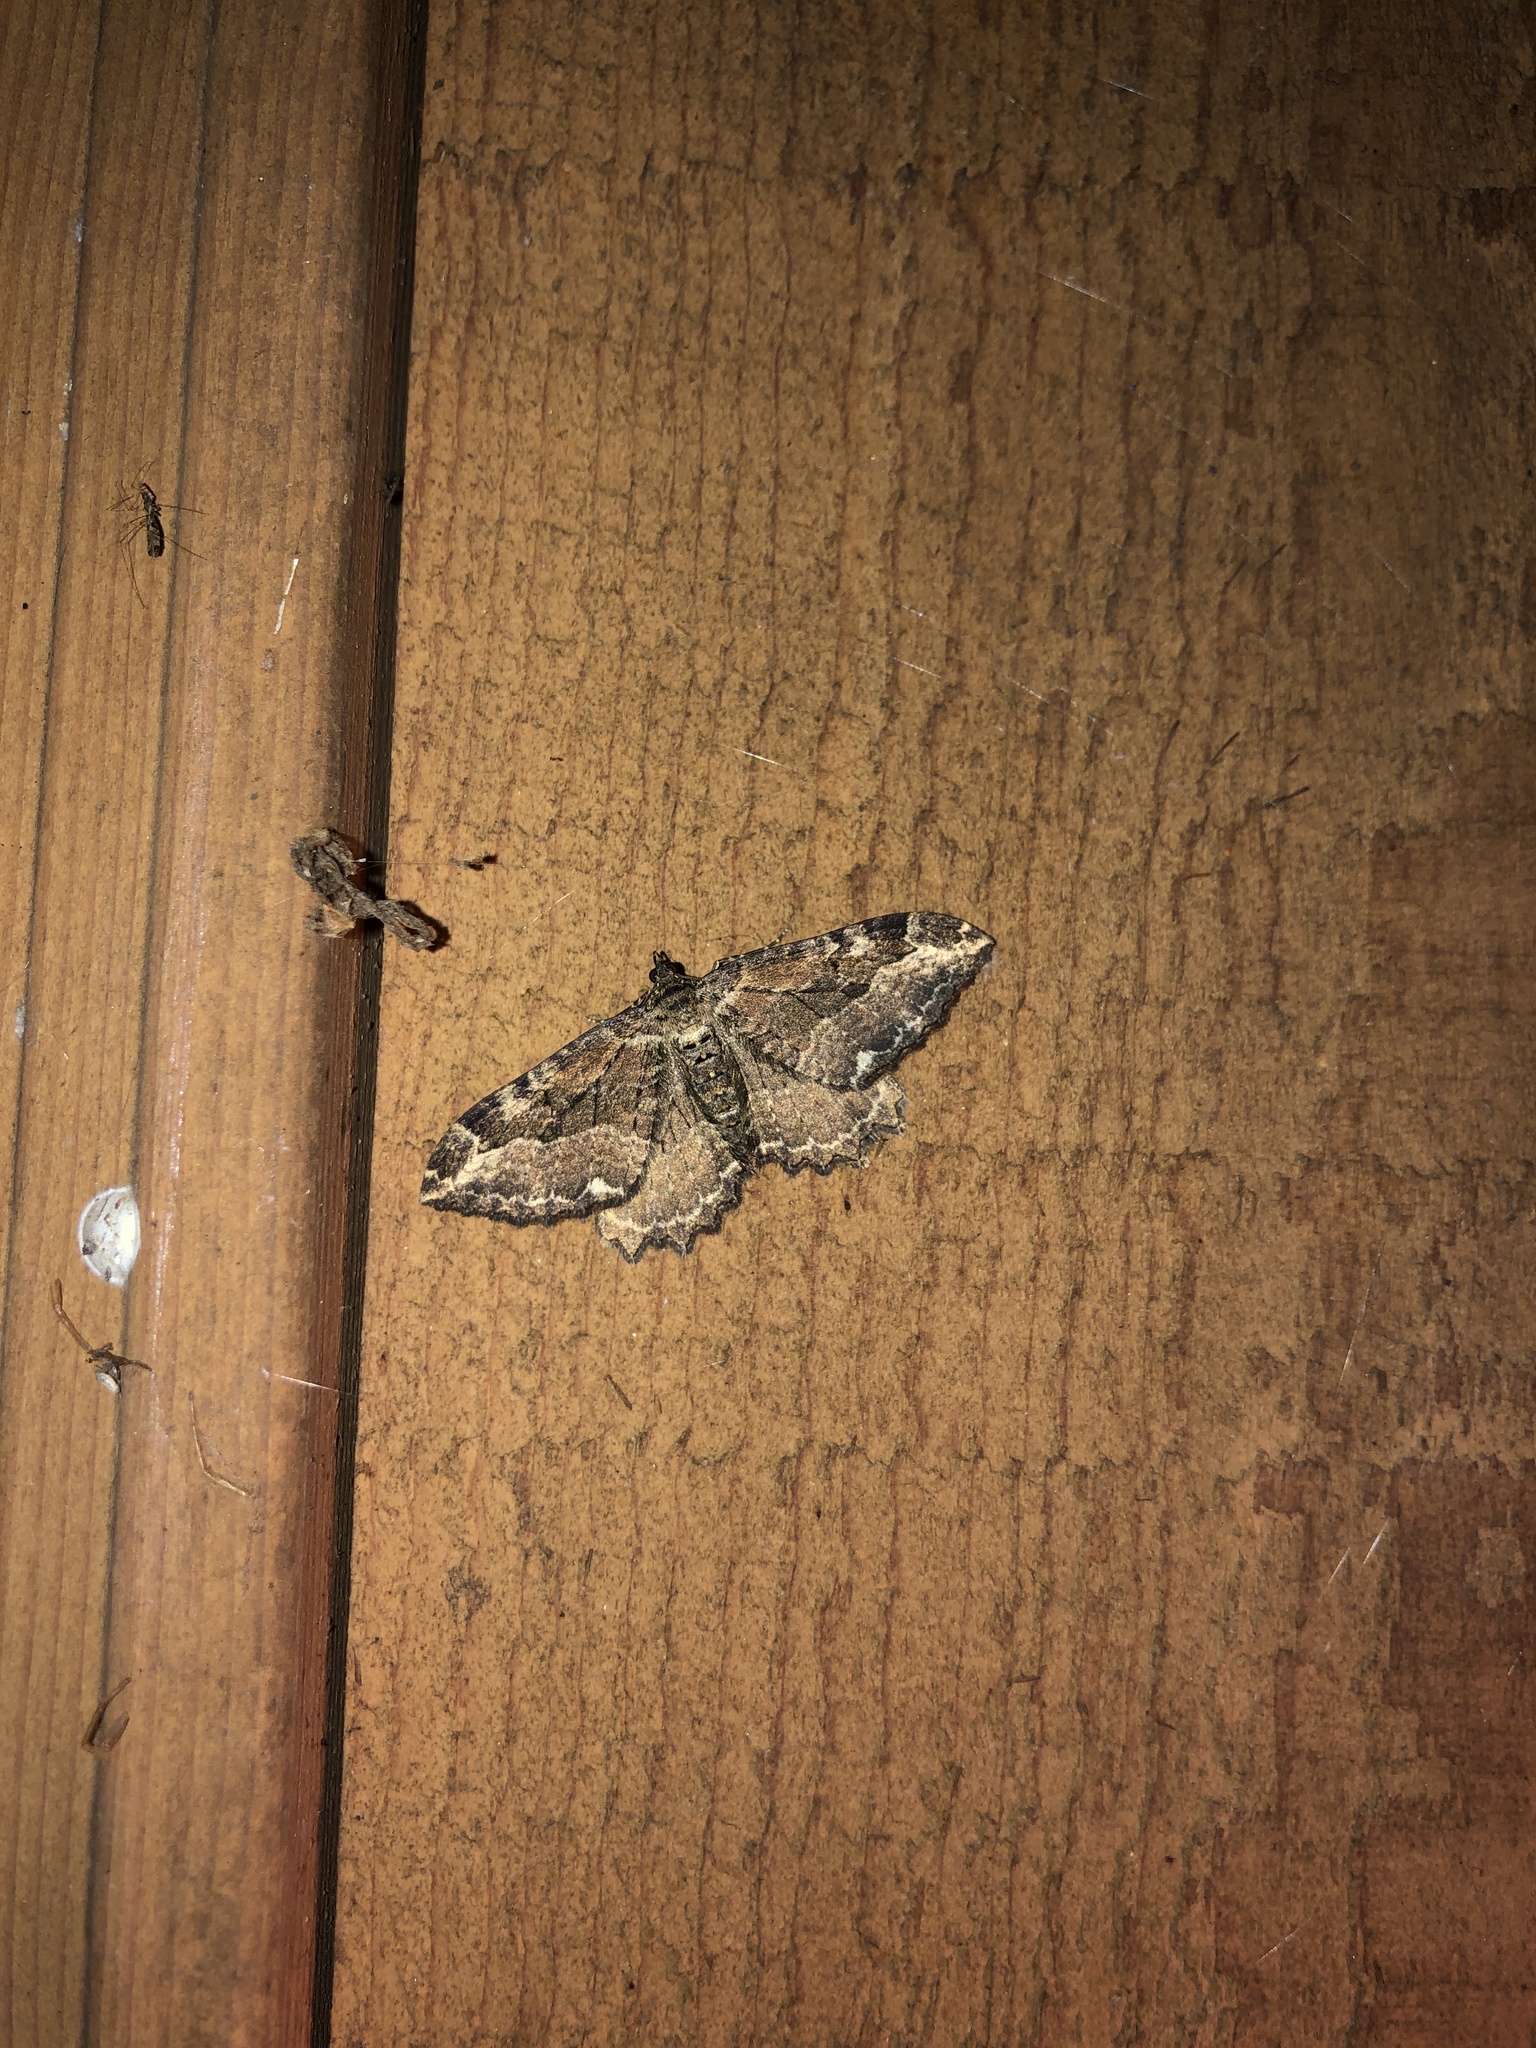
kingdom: Animalia
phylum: Arthropoda
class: Insecta
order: Lepidoptera
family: Geometridae
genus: Rheumaptera
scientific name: Rheumaptera
